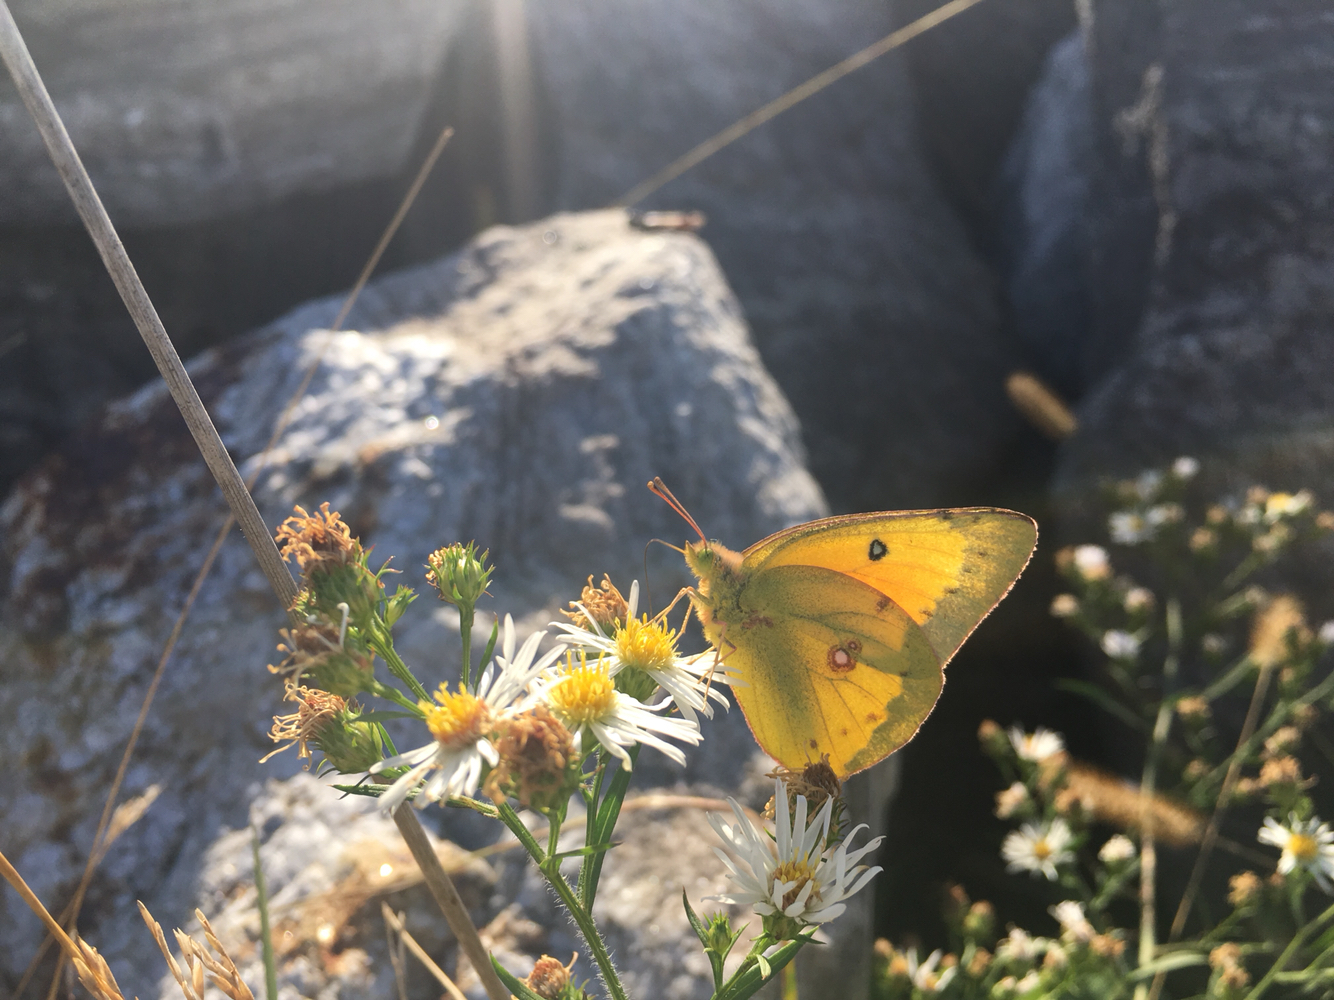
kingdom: Animalia
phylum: Arthropoda
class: Insecta
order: Lepidoptera
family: Pieridae
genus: Colias
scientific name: Colias eurytheme
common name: Alfalfa butterfly
